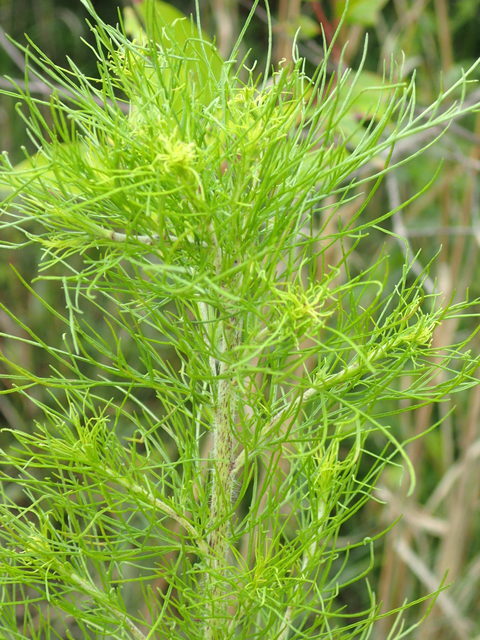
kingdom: Plantae
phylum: Tracheophyta
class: Magnoliopsida
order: Asterales
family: Asteraceae
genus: Eupatorium
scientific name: Eupatorium capillifolium
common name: Dog-fennel
